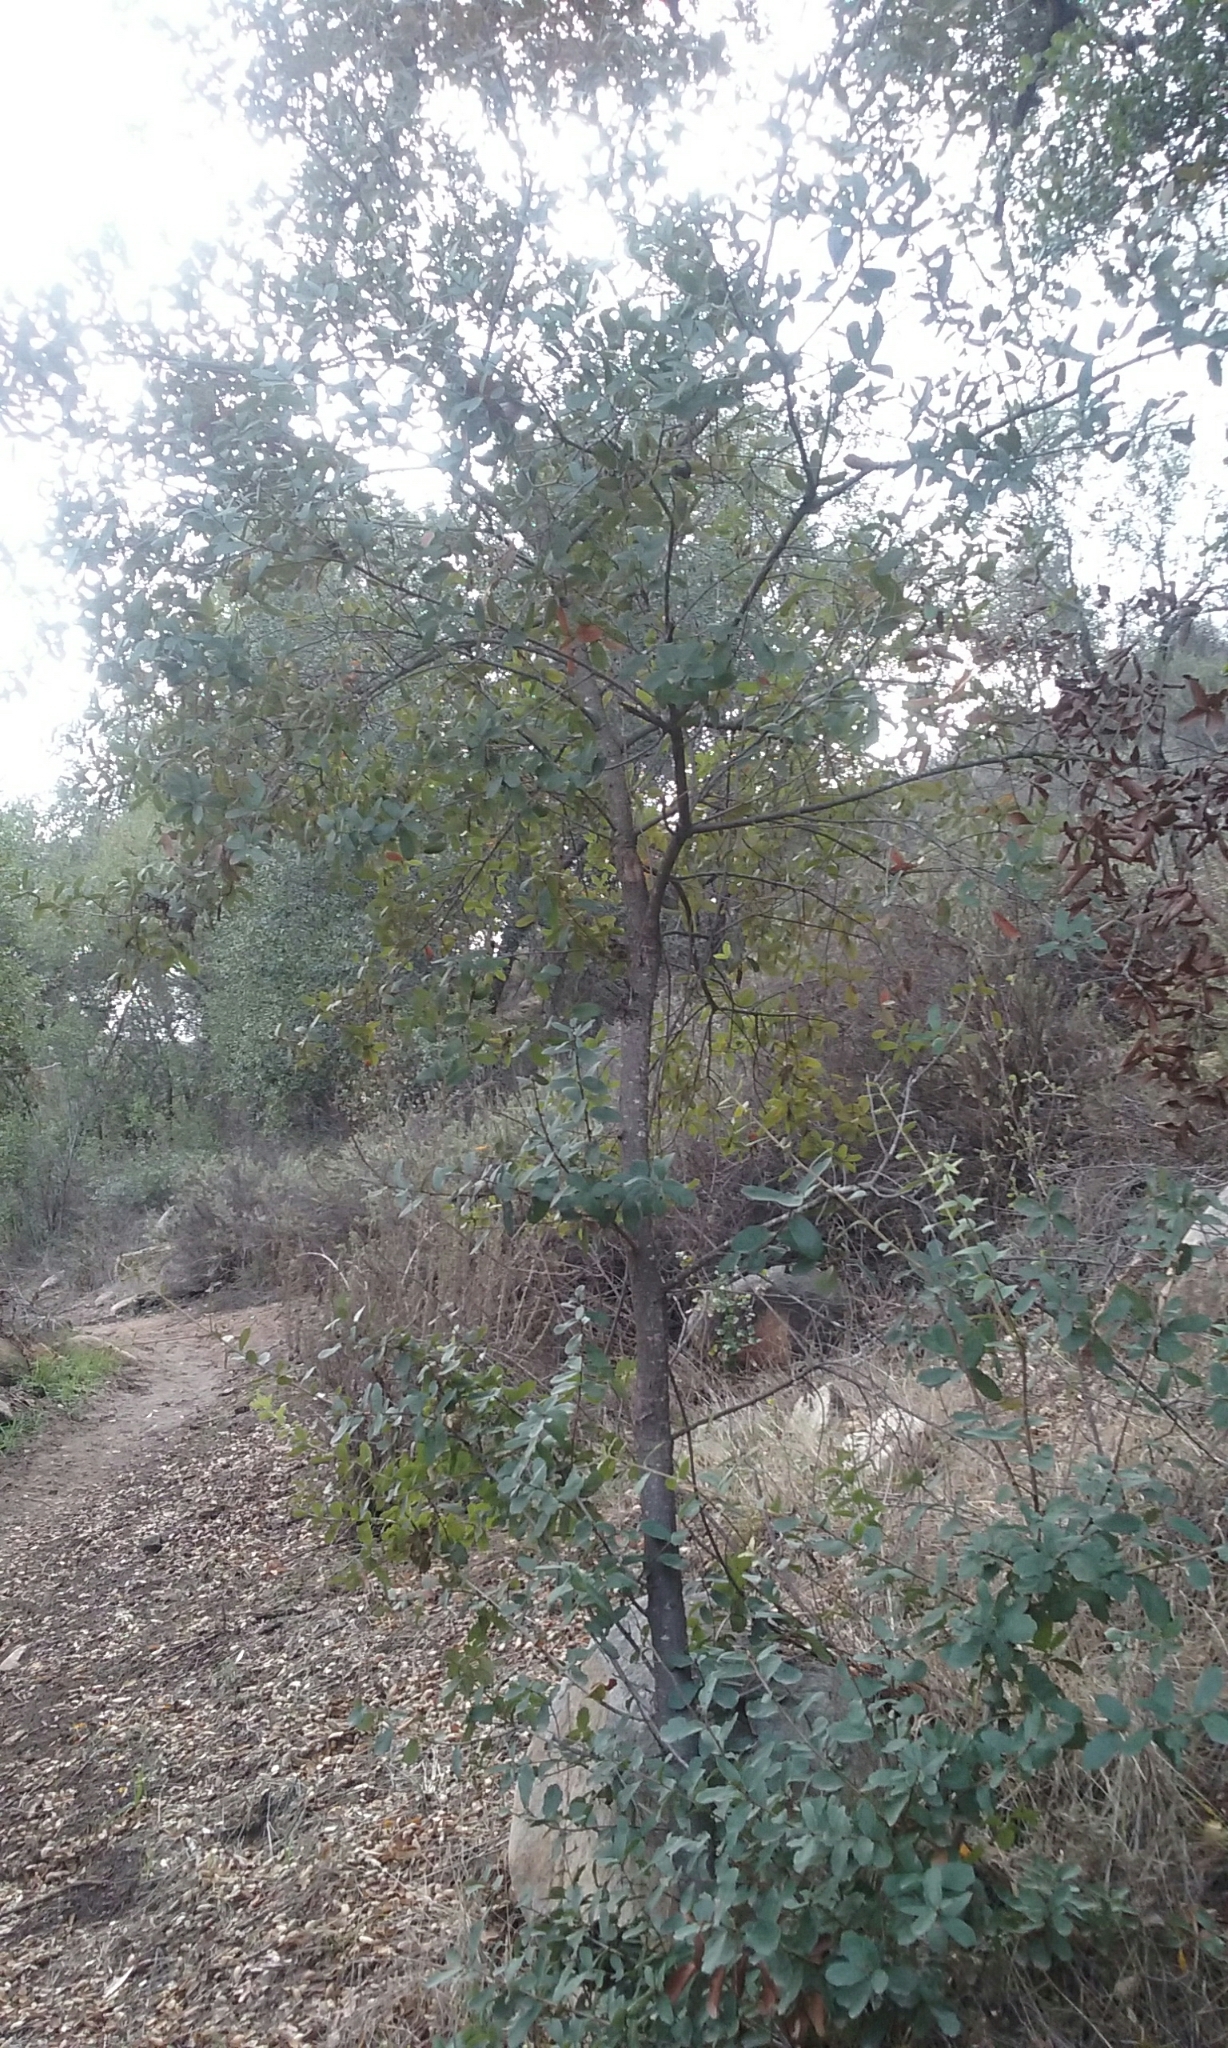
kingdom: Plantae
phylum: Tracheophyta
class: Magnoliopsida
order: Fagales
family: Fagaceae
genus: Quercus
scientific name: Quercus engelmannii
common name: Engelmann oak
